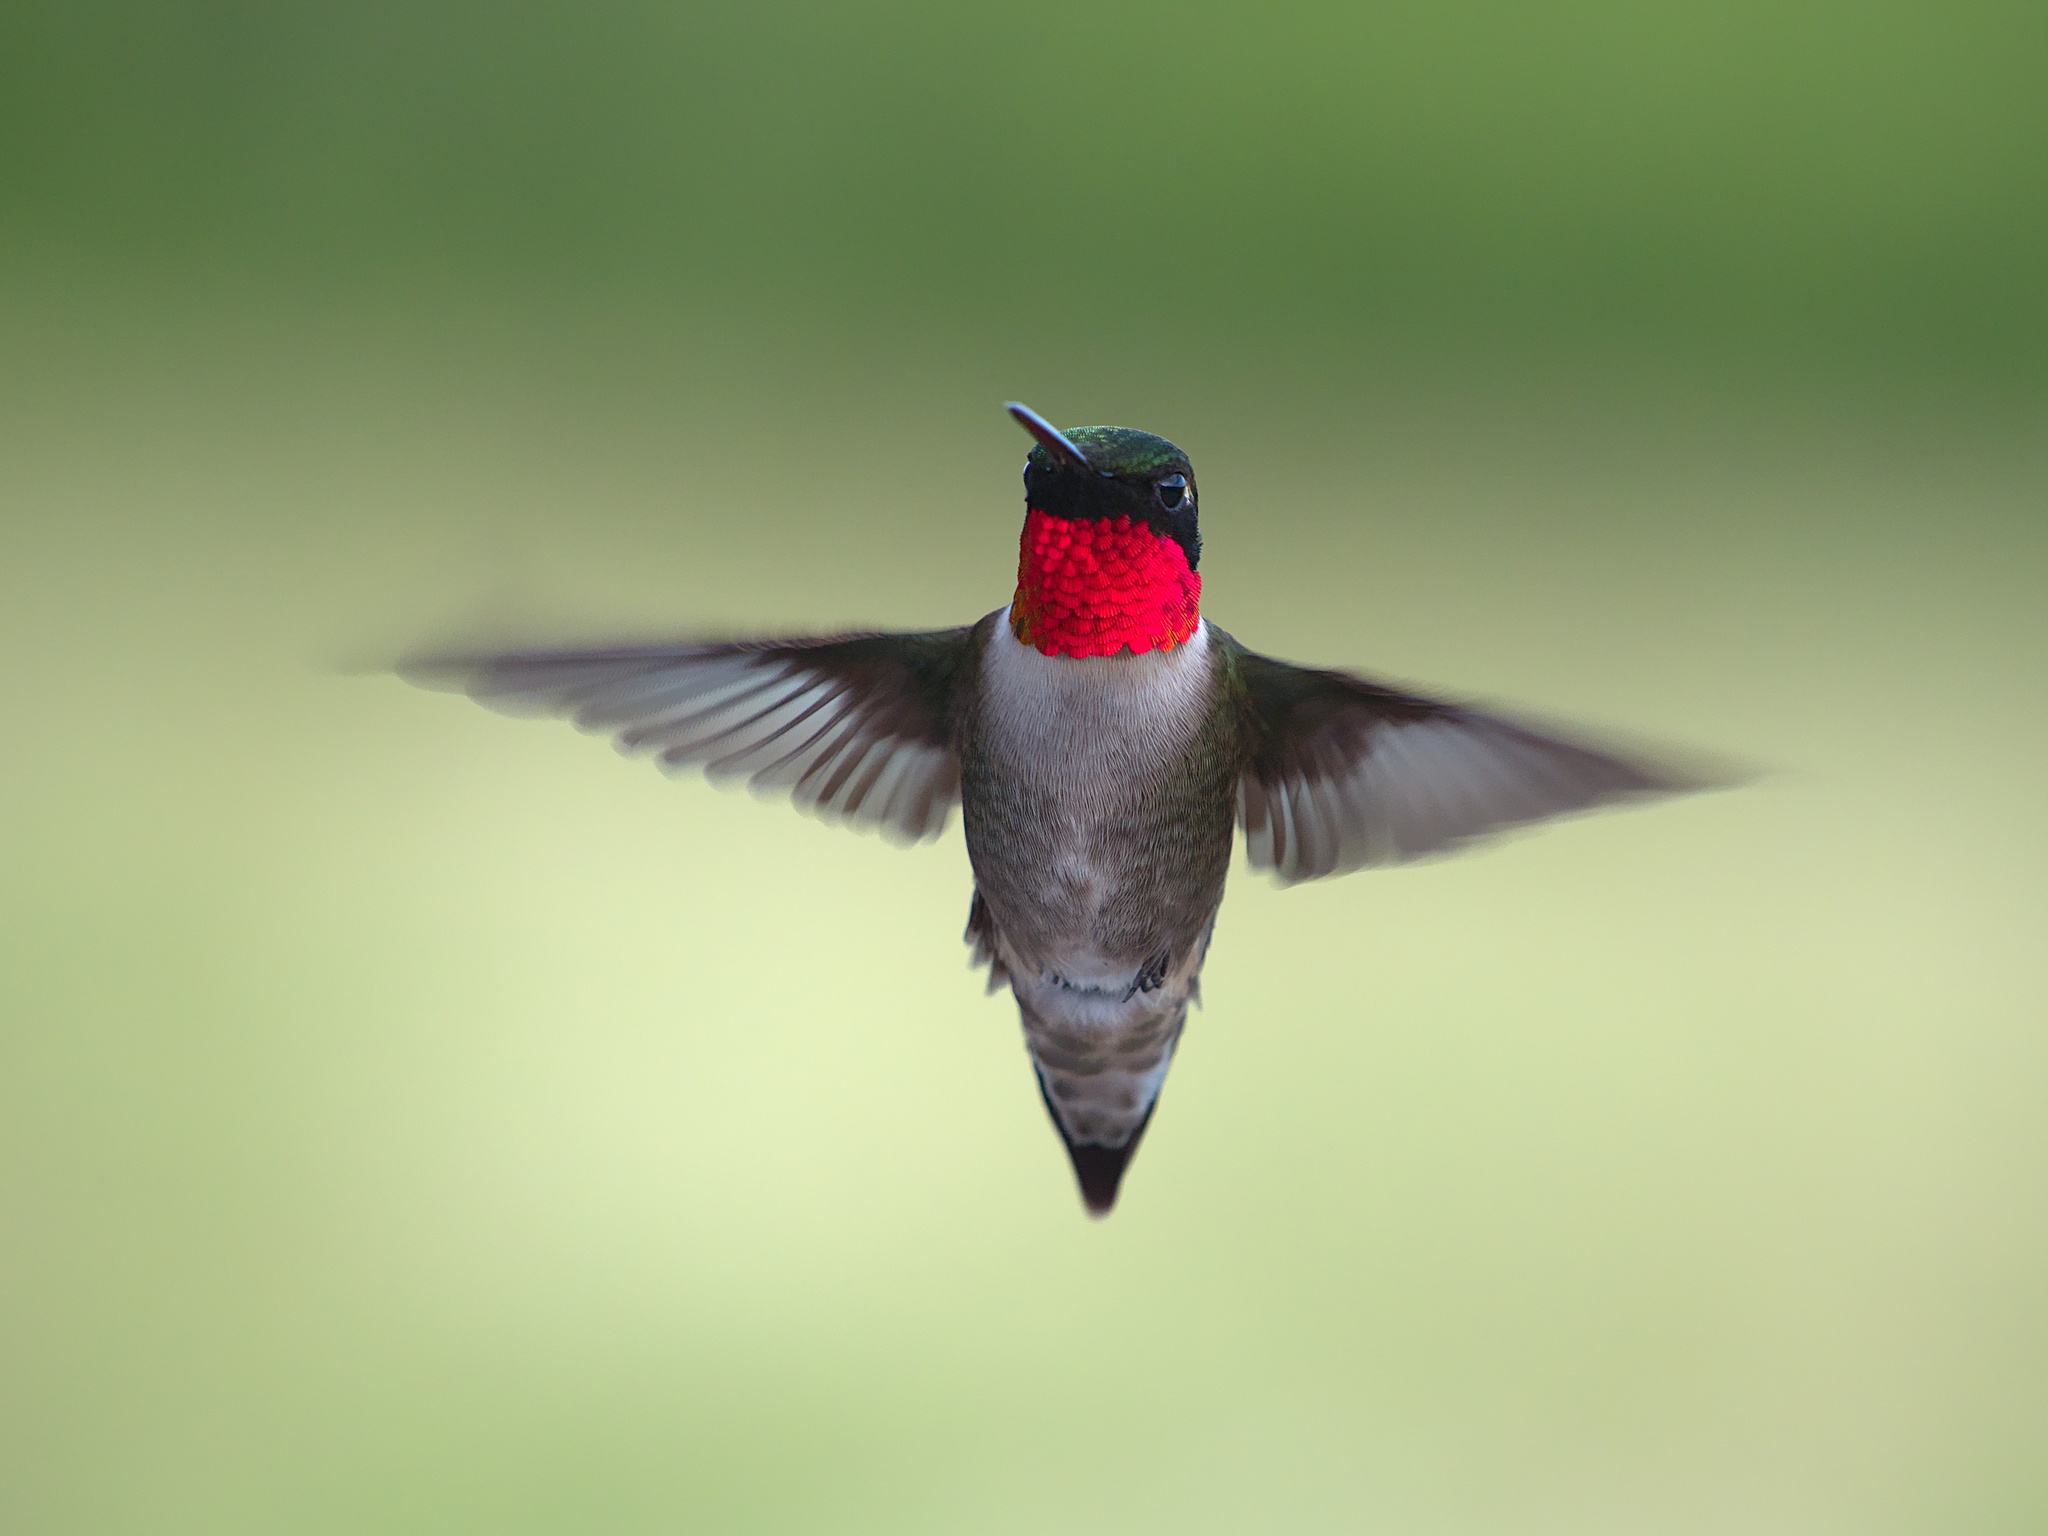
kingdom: Animalia
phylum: Chordata
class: Aves
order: Apodiformes
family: Trochilidae
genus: Archilochus
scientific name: Archilochus colubris
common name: Ruby-throated hummingbird
